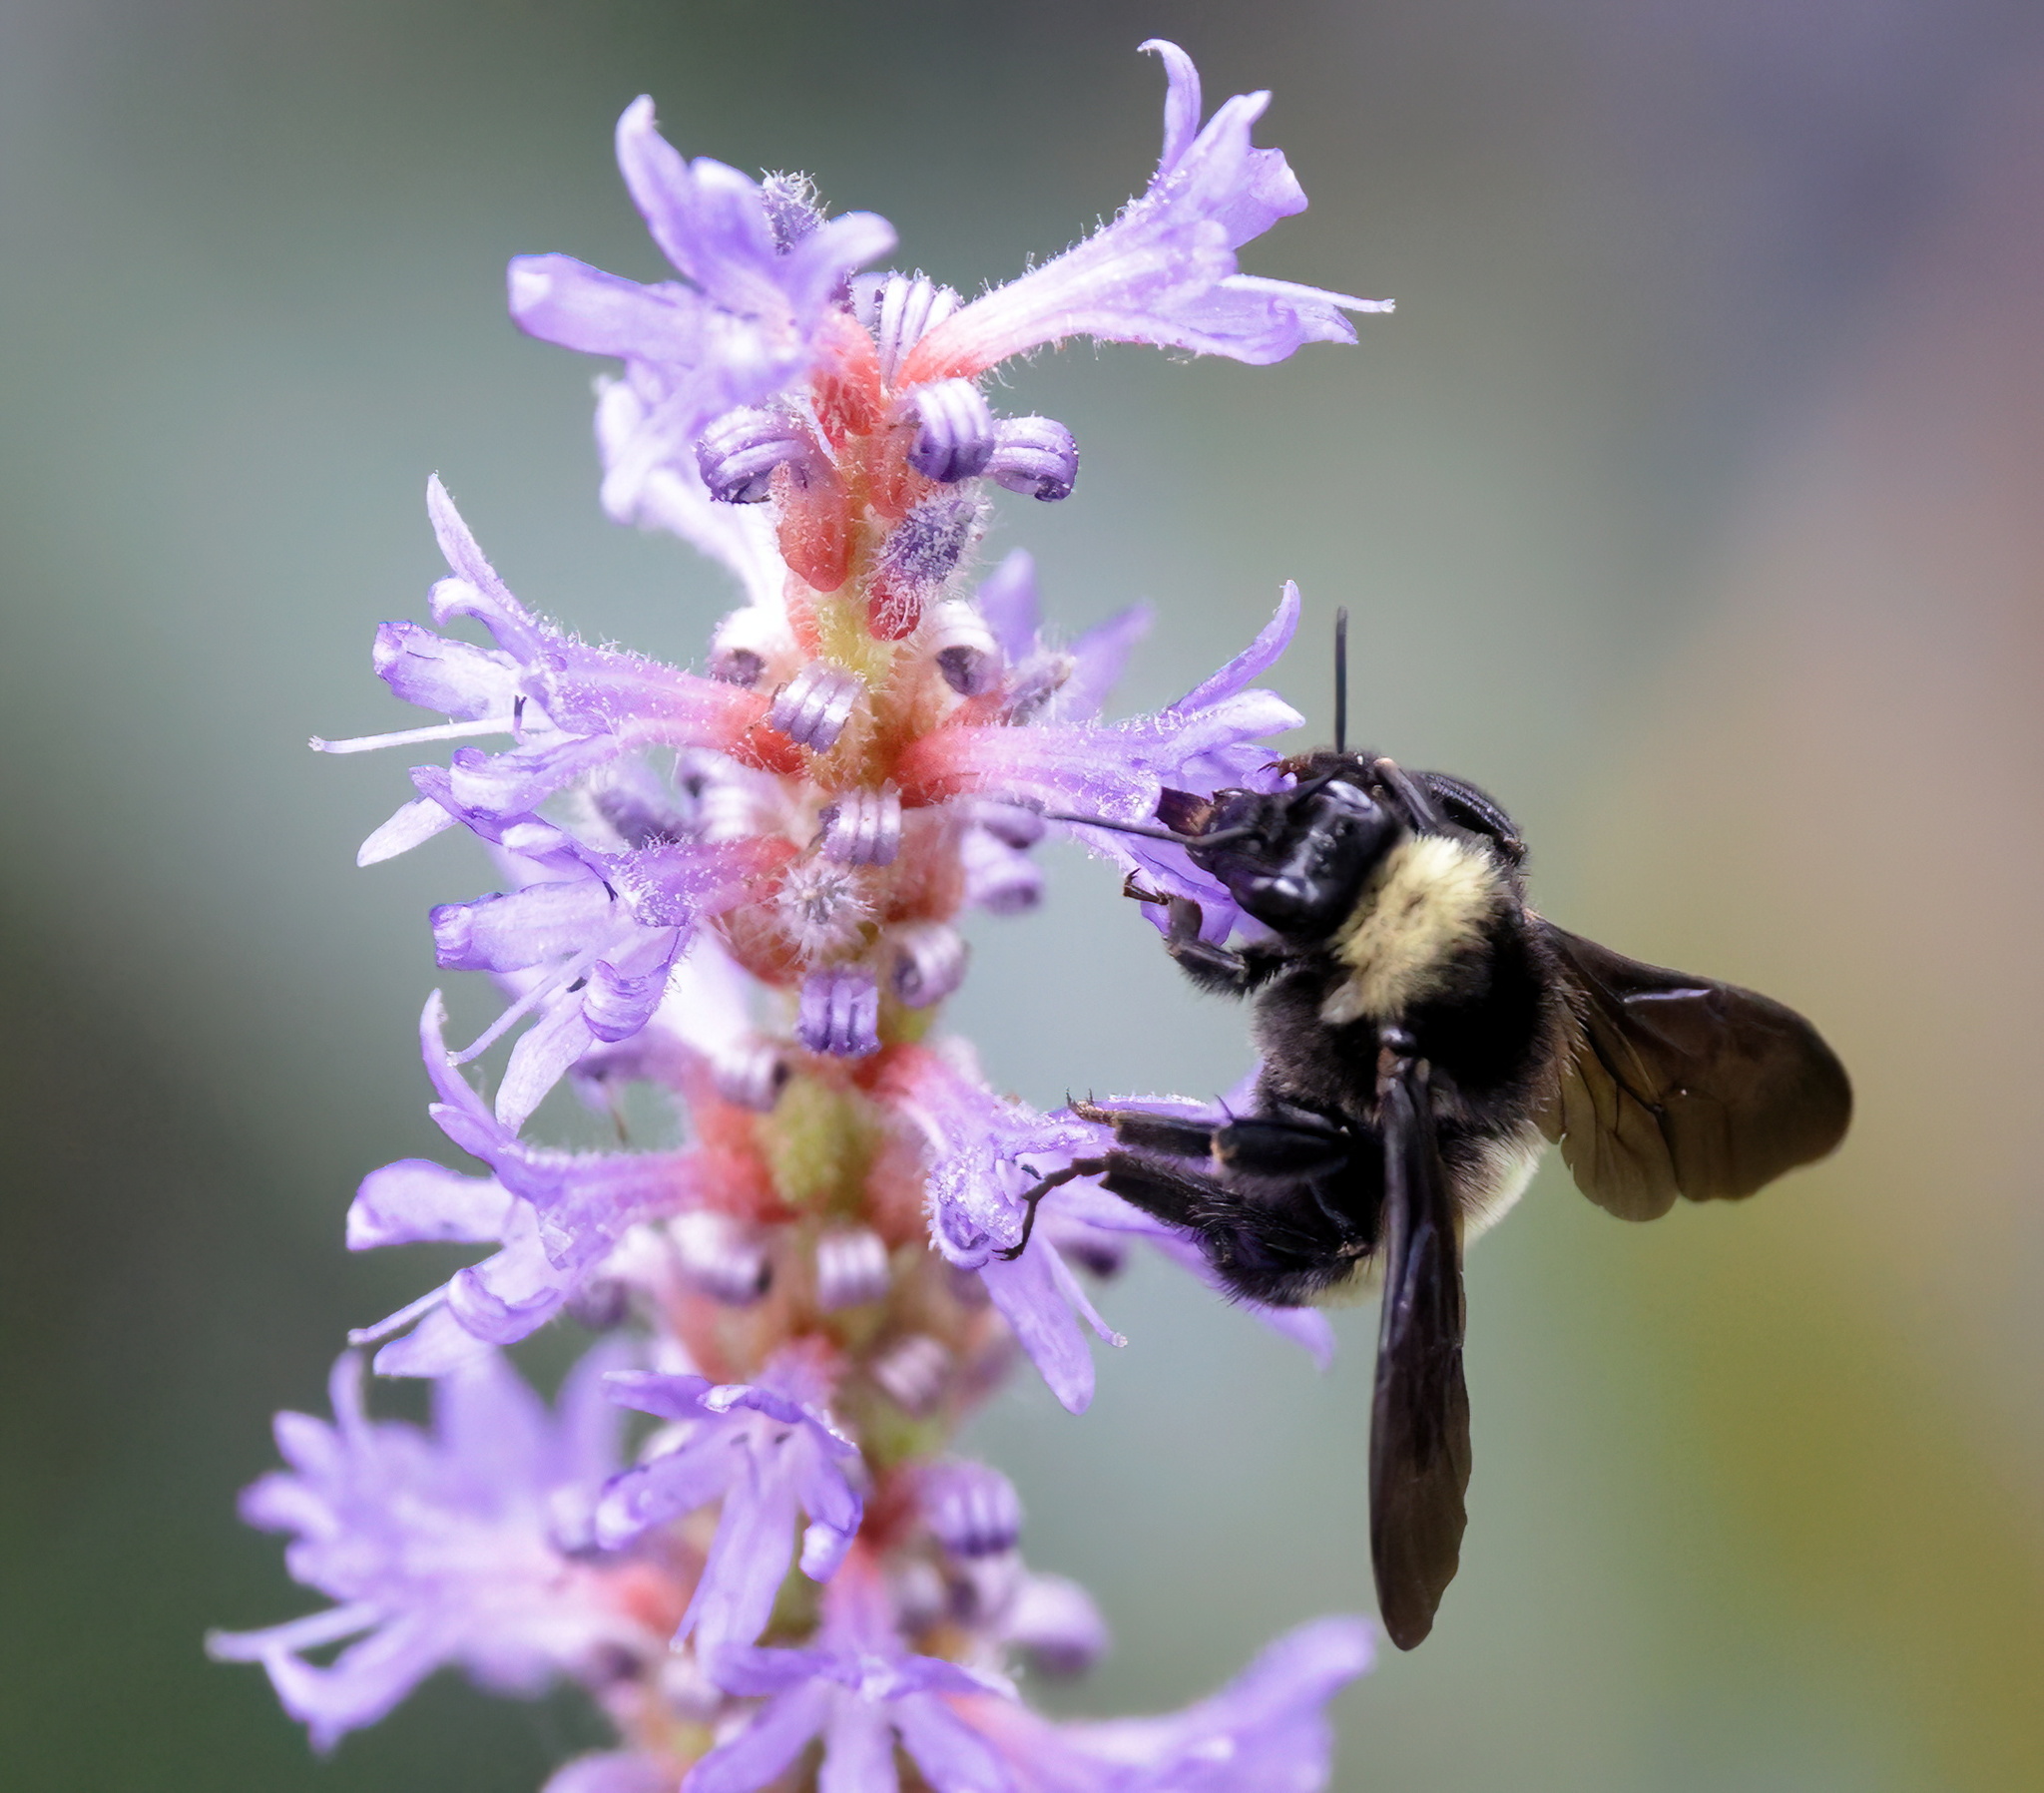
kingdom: Animalia
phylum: Arthropoda
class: Insecta
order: Hymenoptera
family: Apidae
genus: Bombus
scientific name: Bombus pensylvanicus
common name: Bumble bee
